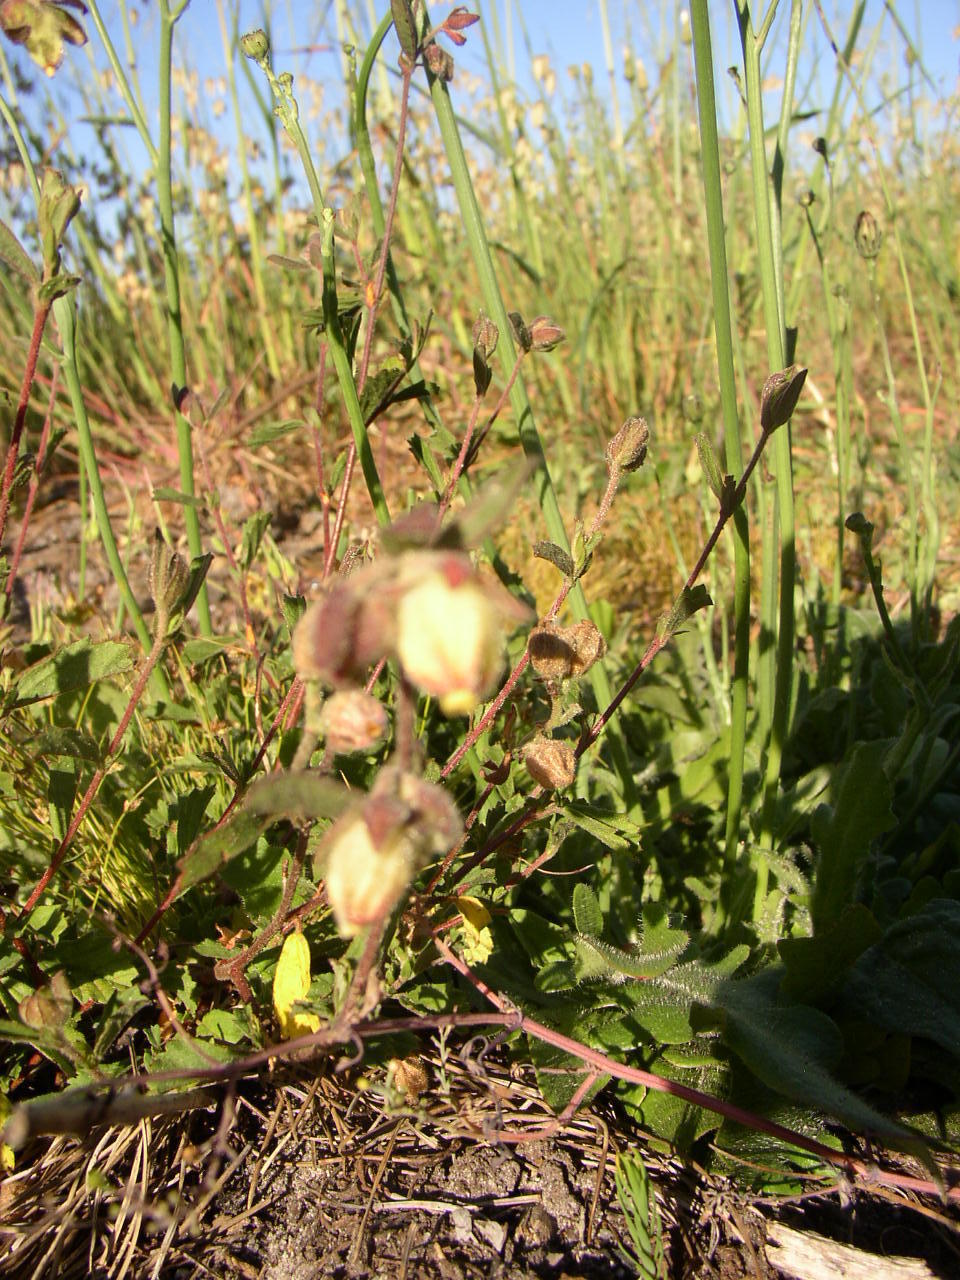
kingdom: Plantae
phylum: Tracheophyta
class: Magnoliopsida
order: Malvales
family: Malvaceae
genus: Hermannia
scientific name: Hermannia hyssopifolia
